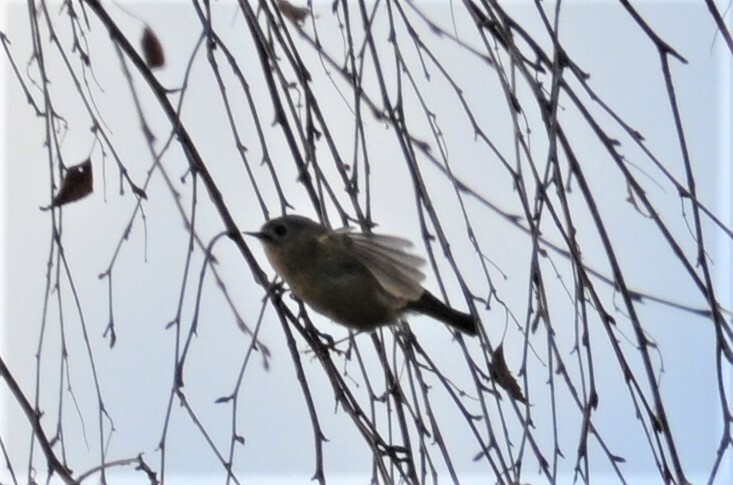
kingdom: Animalia
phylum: Chordata
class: Aves
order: Passeriformes
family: Regulidae
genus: Regulus
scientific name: Regulus regulus
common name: Goldcrest
